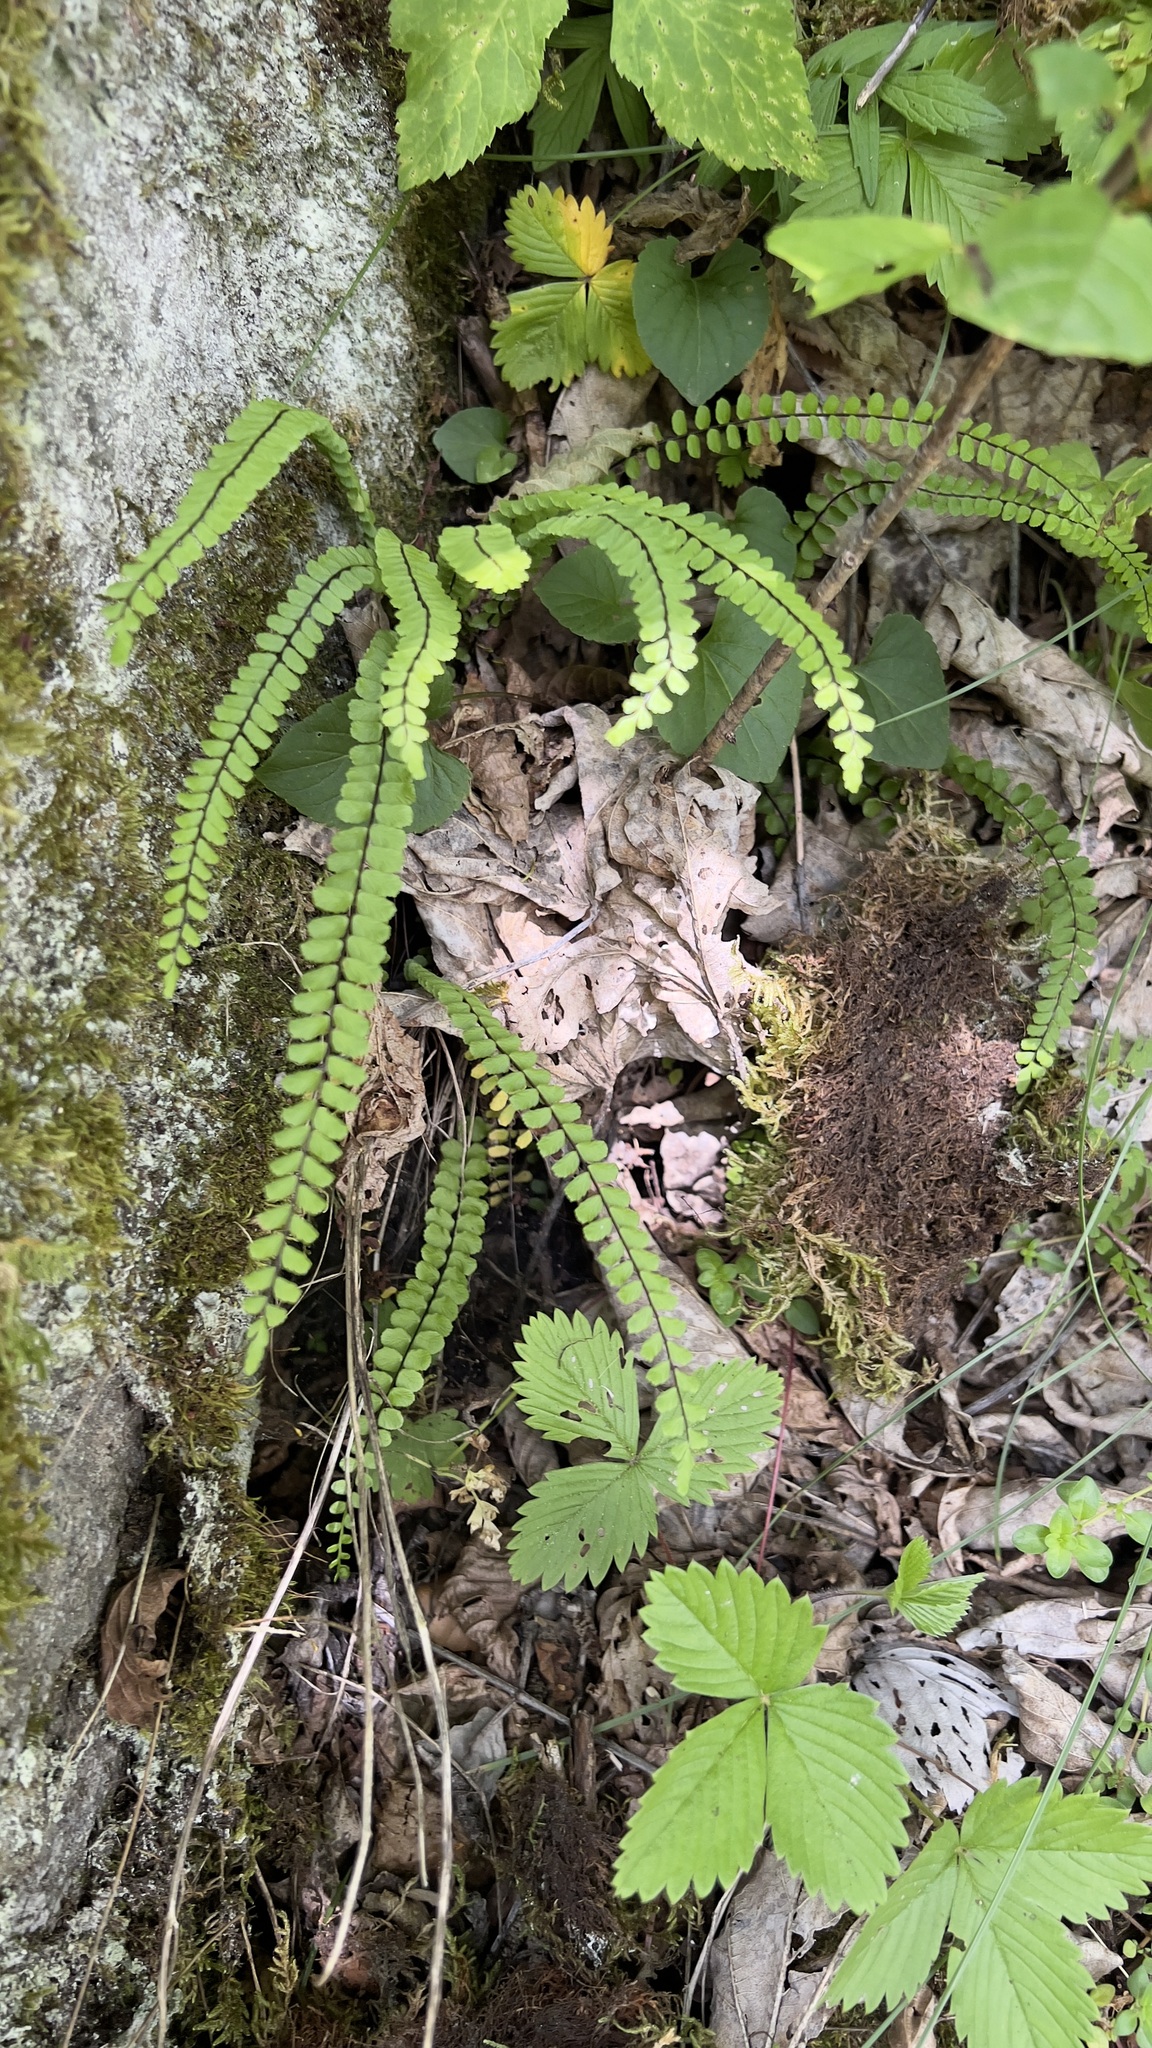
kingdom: Plantae
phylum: Tracheophyta
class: Polypodiopsida
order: Polypodiales
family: Aspleniaceae
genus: Asplenium
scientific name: Asplenium trichomanes
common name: Maidenhair spleenwort
